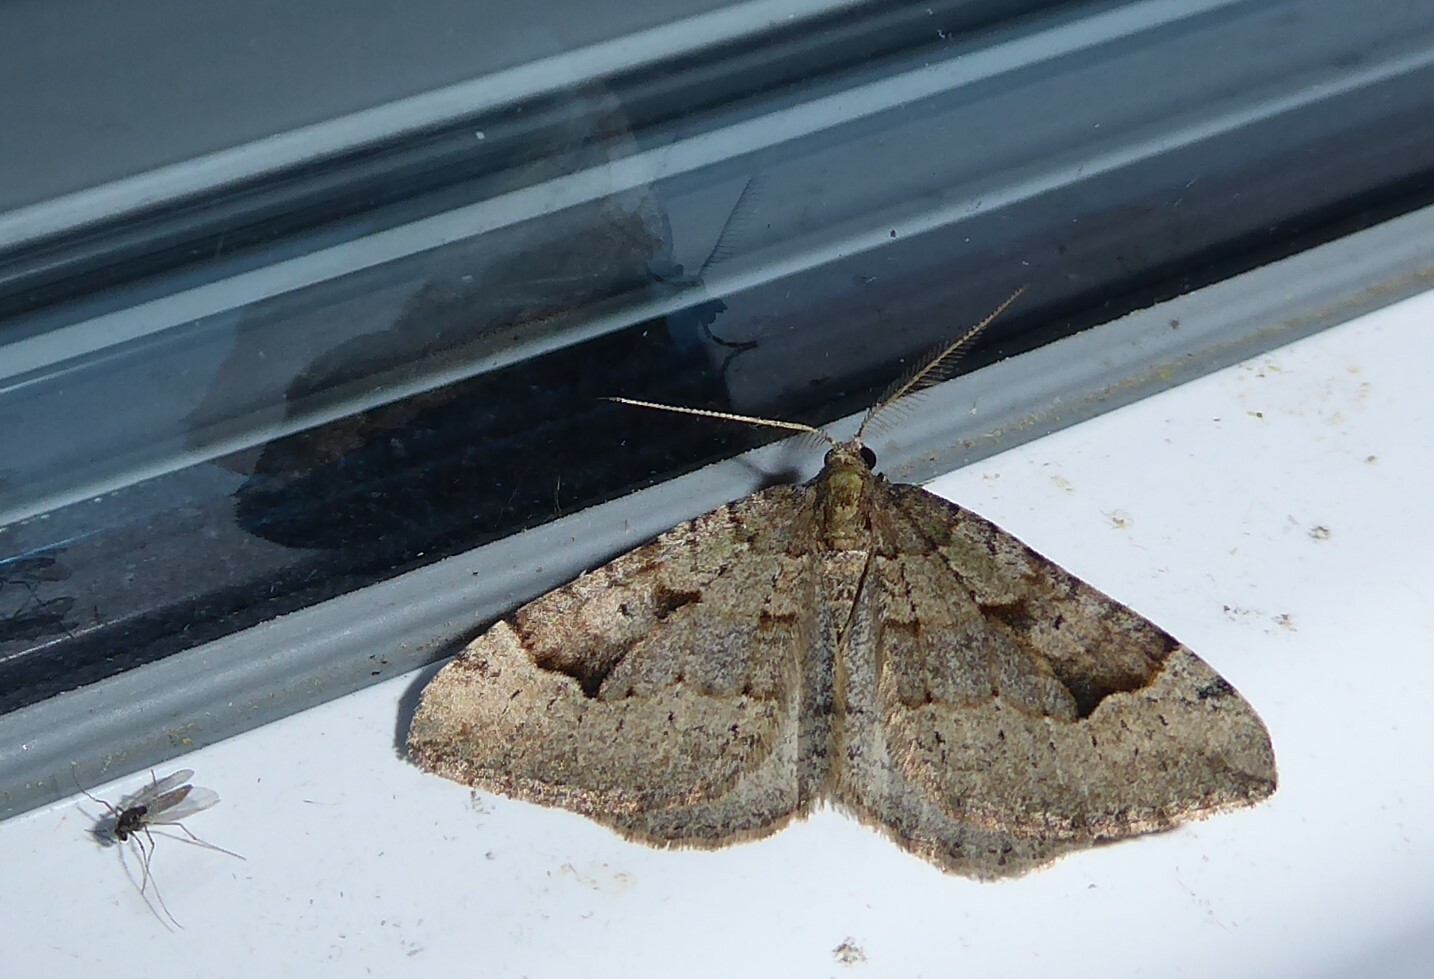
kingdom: Animalia
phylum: Arthropoda
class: Insecta
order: Lepidoptera
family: Geometridae
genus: Epyaxa
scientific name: Epyaxa rosearia
